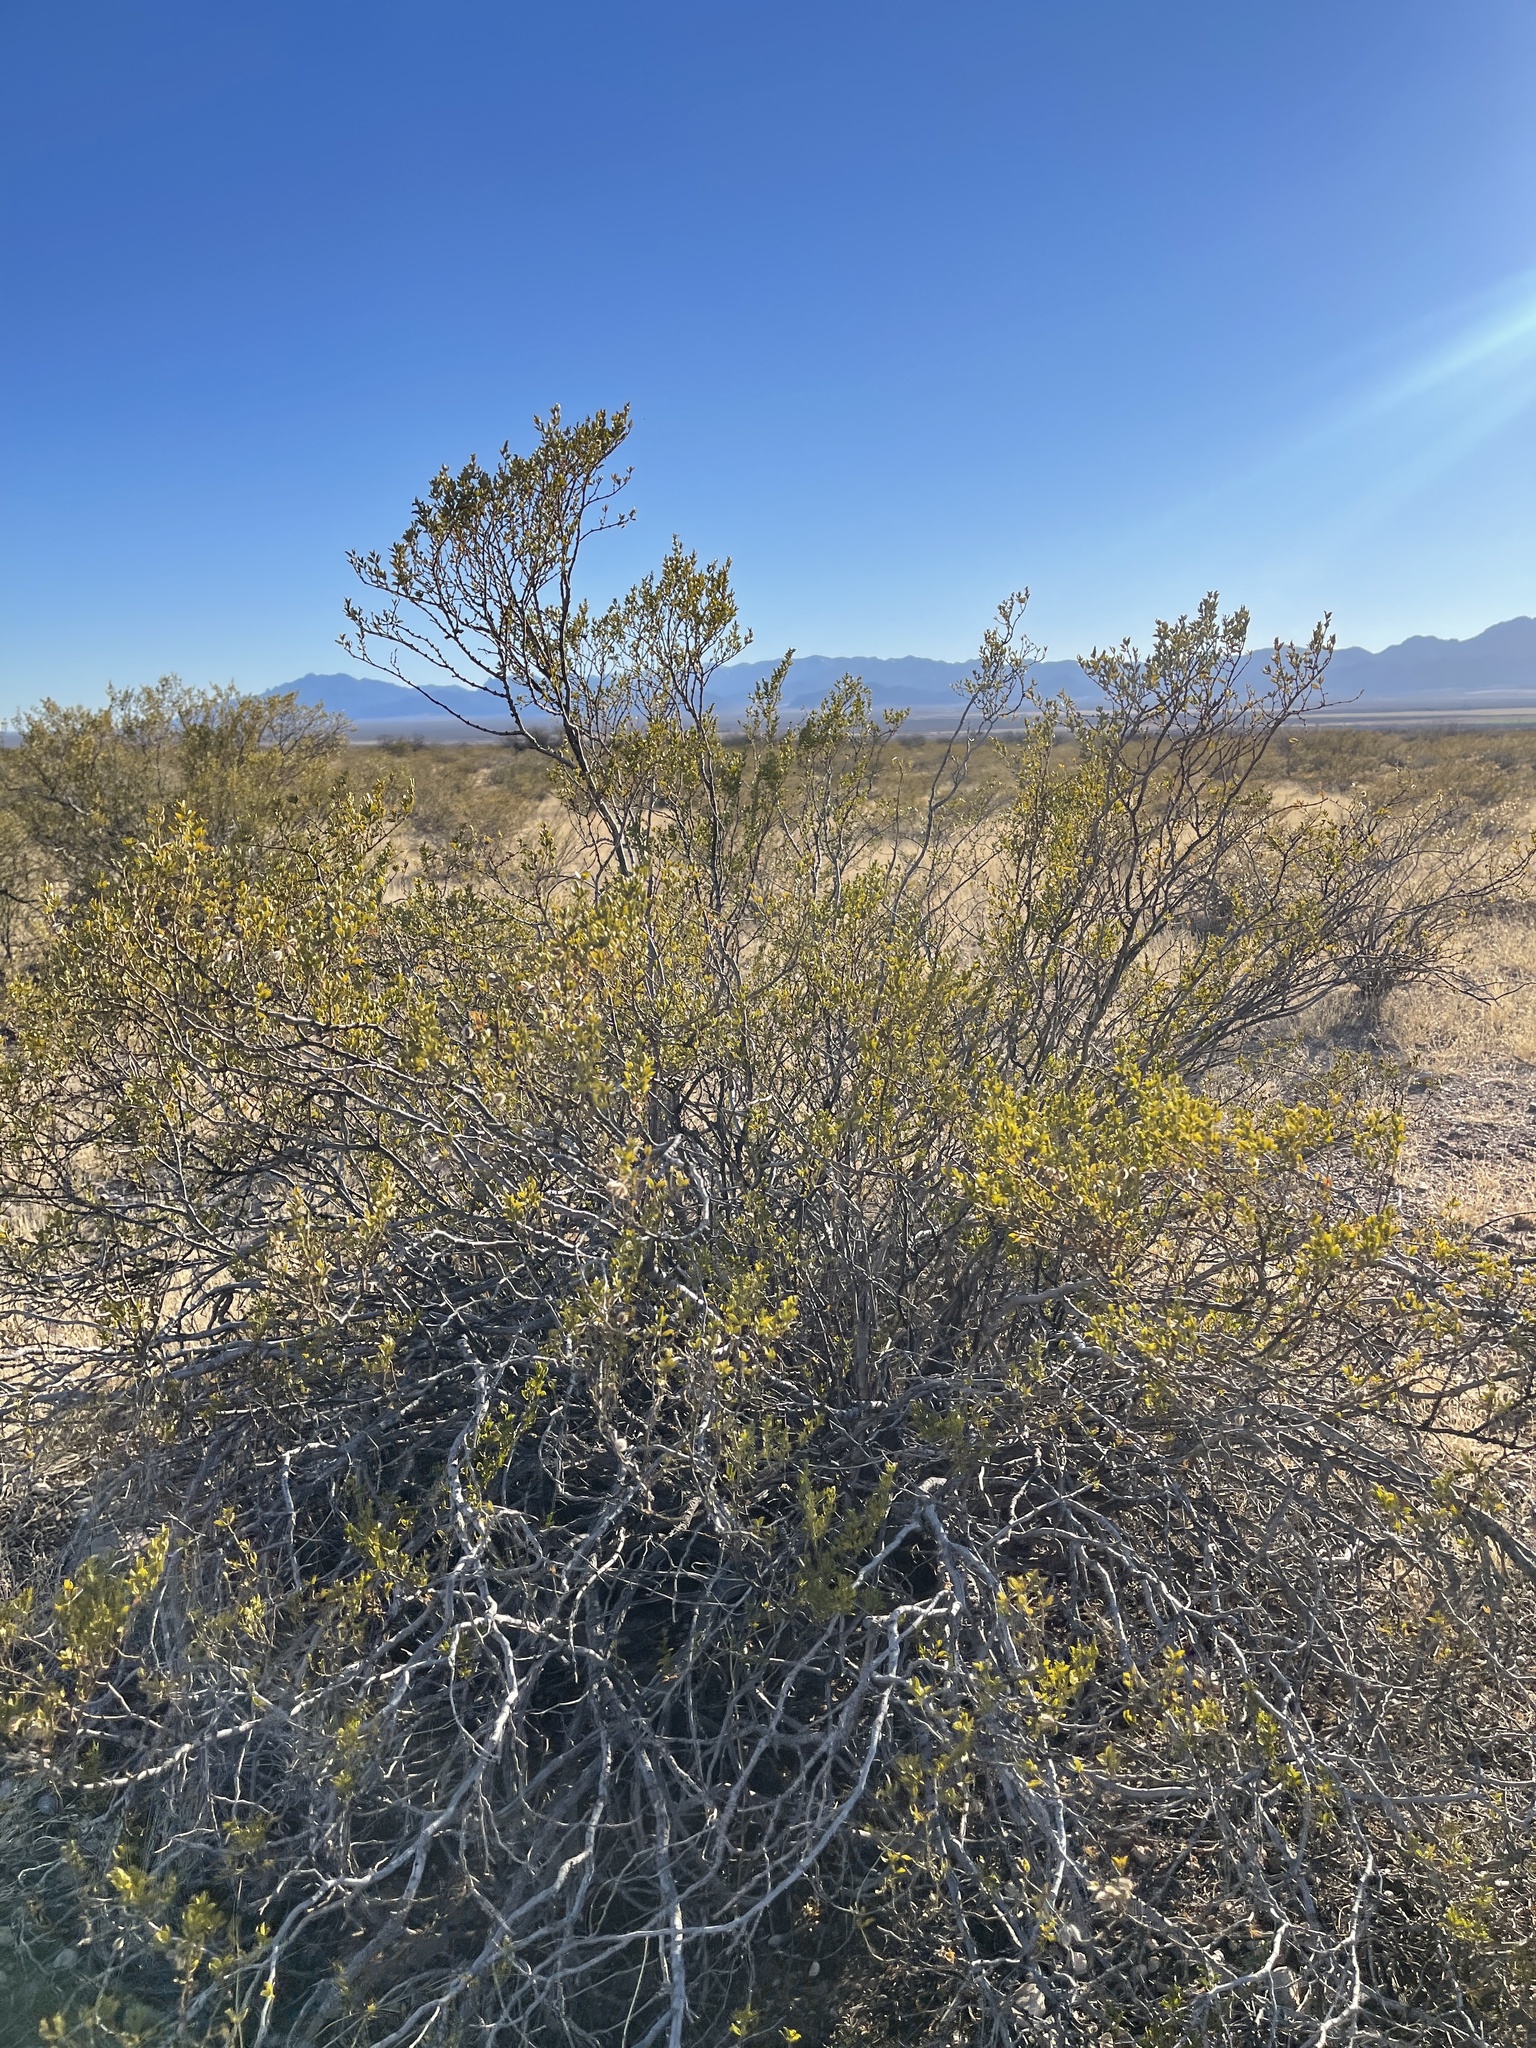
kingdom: Plantae
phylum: Tracheophyta
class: Magnoliopsida
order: Zygophyllales
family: Zygophyllaceae
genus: Larrea
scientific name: Larrea tridentata
